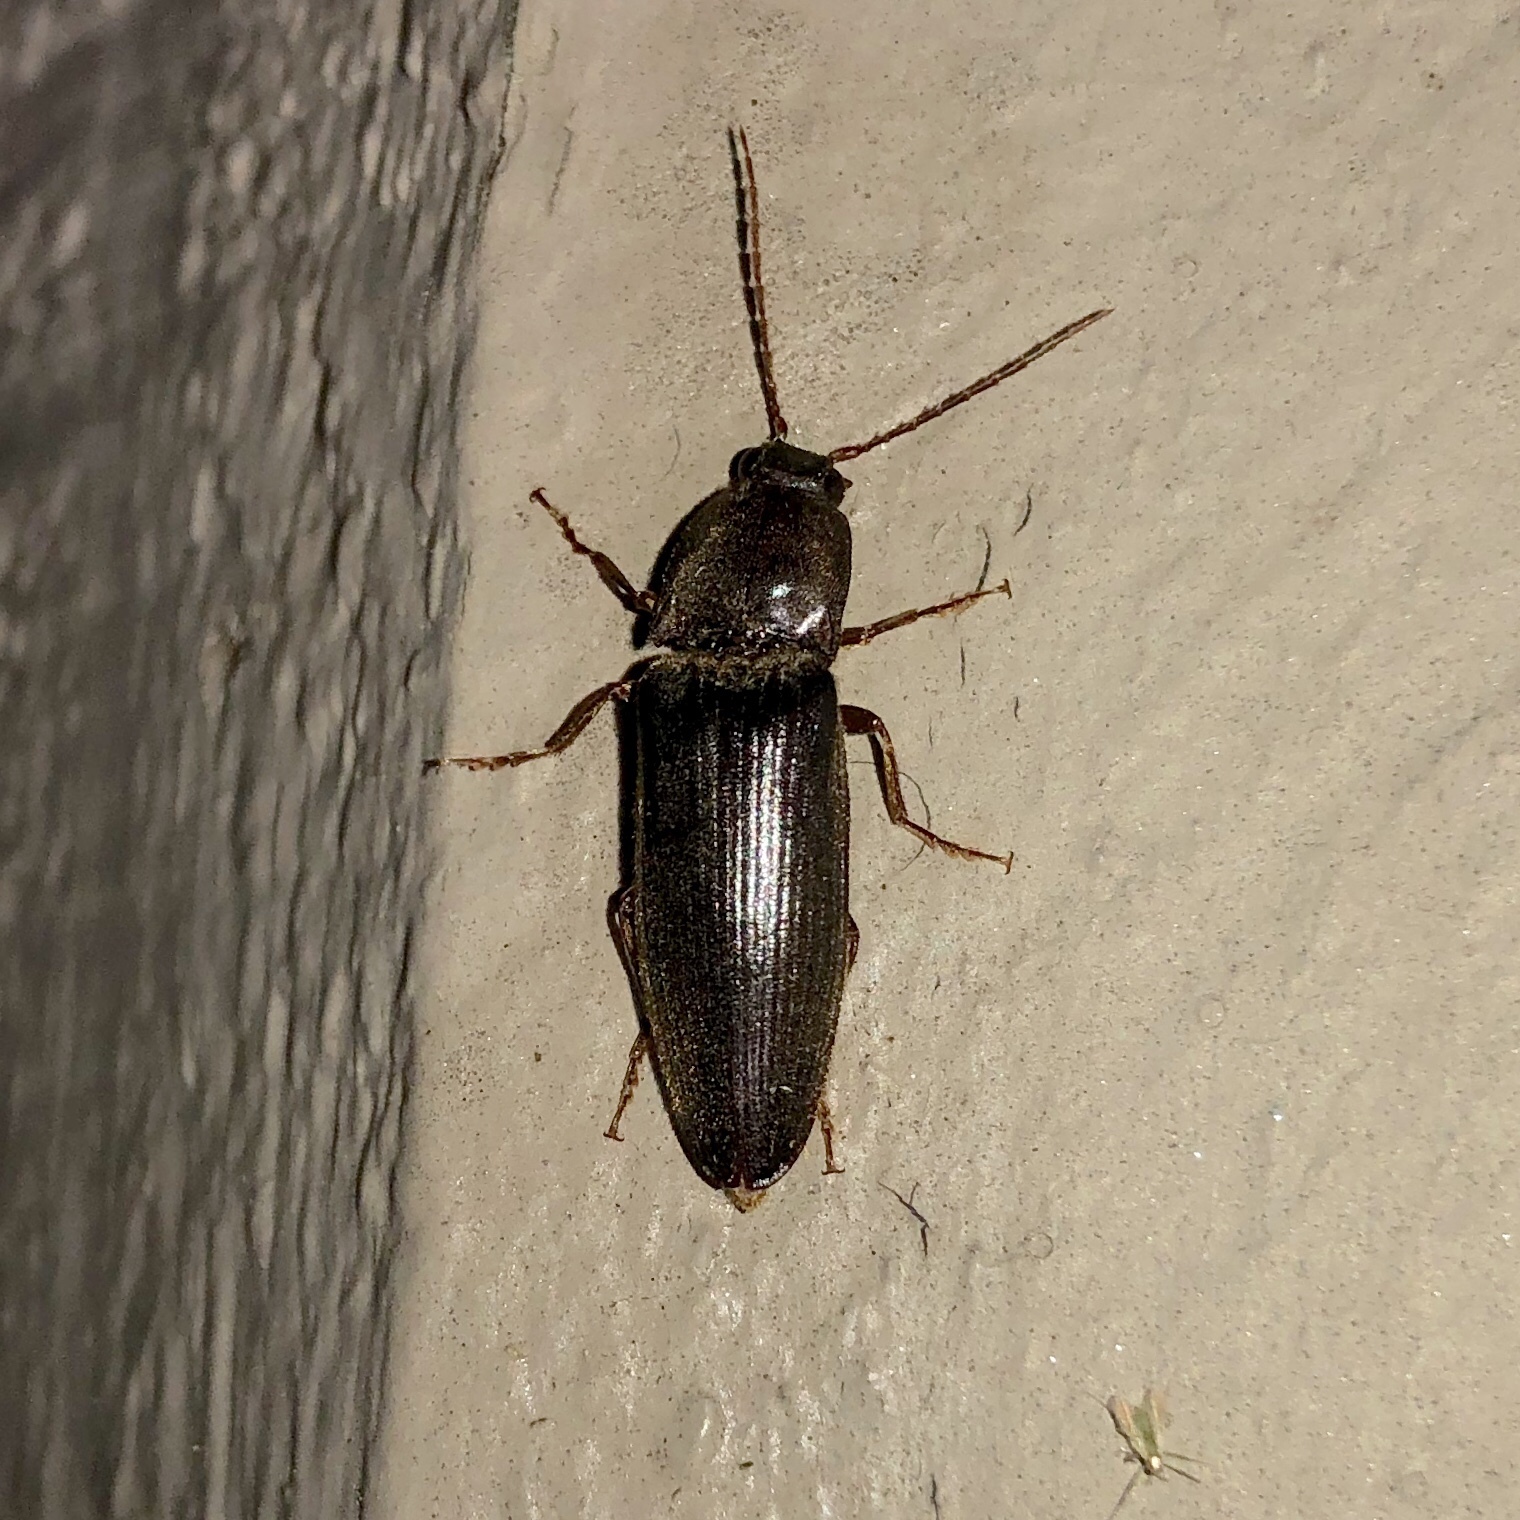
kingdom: Animalia
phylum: Arthropoda
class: Insecta
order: Coleoptera
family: Elateridae
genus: Hemicrepidius
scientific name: Hemicrepidius
